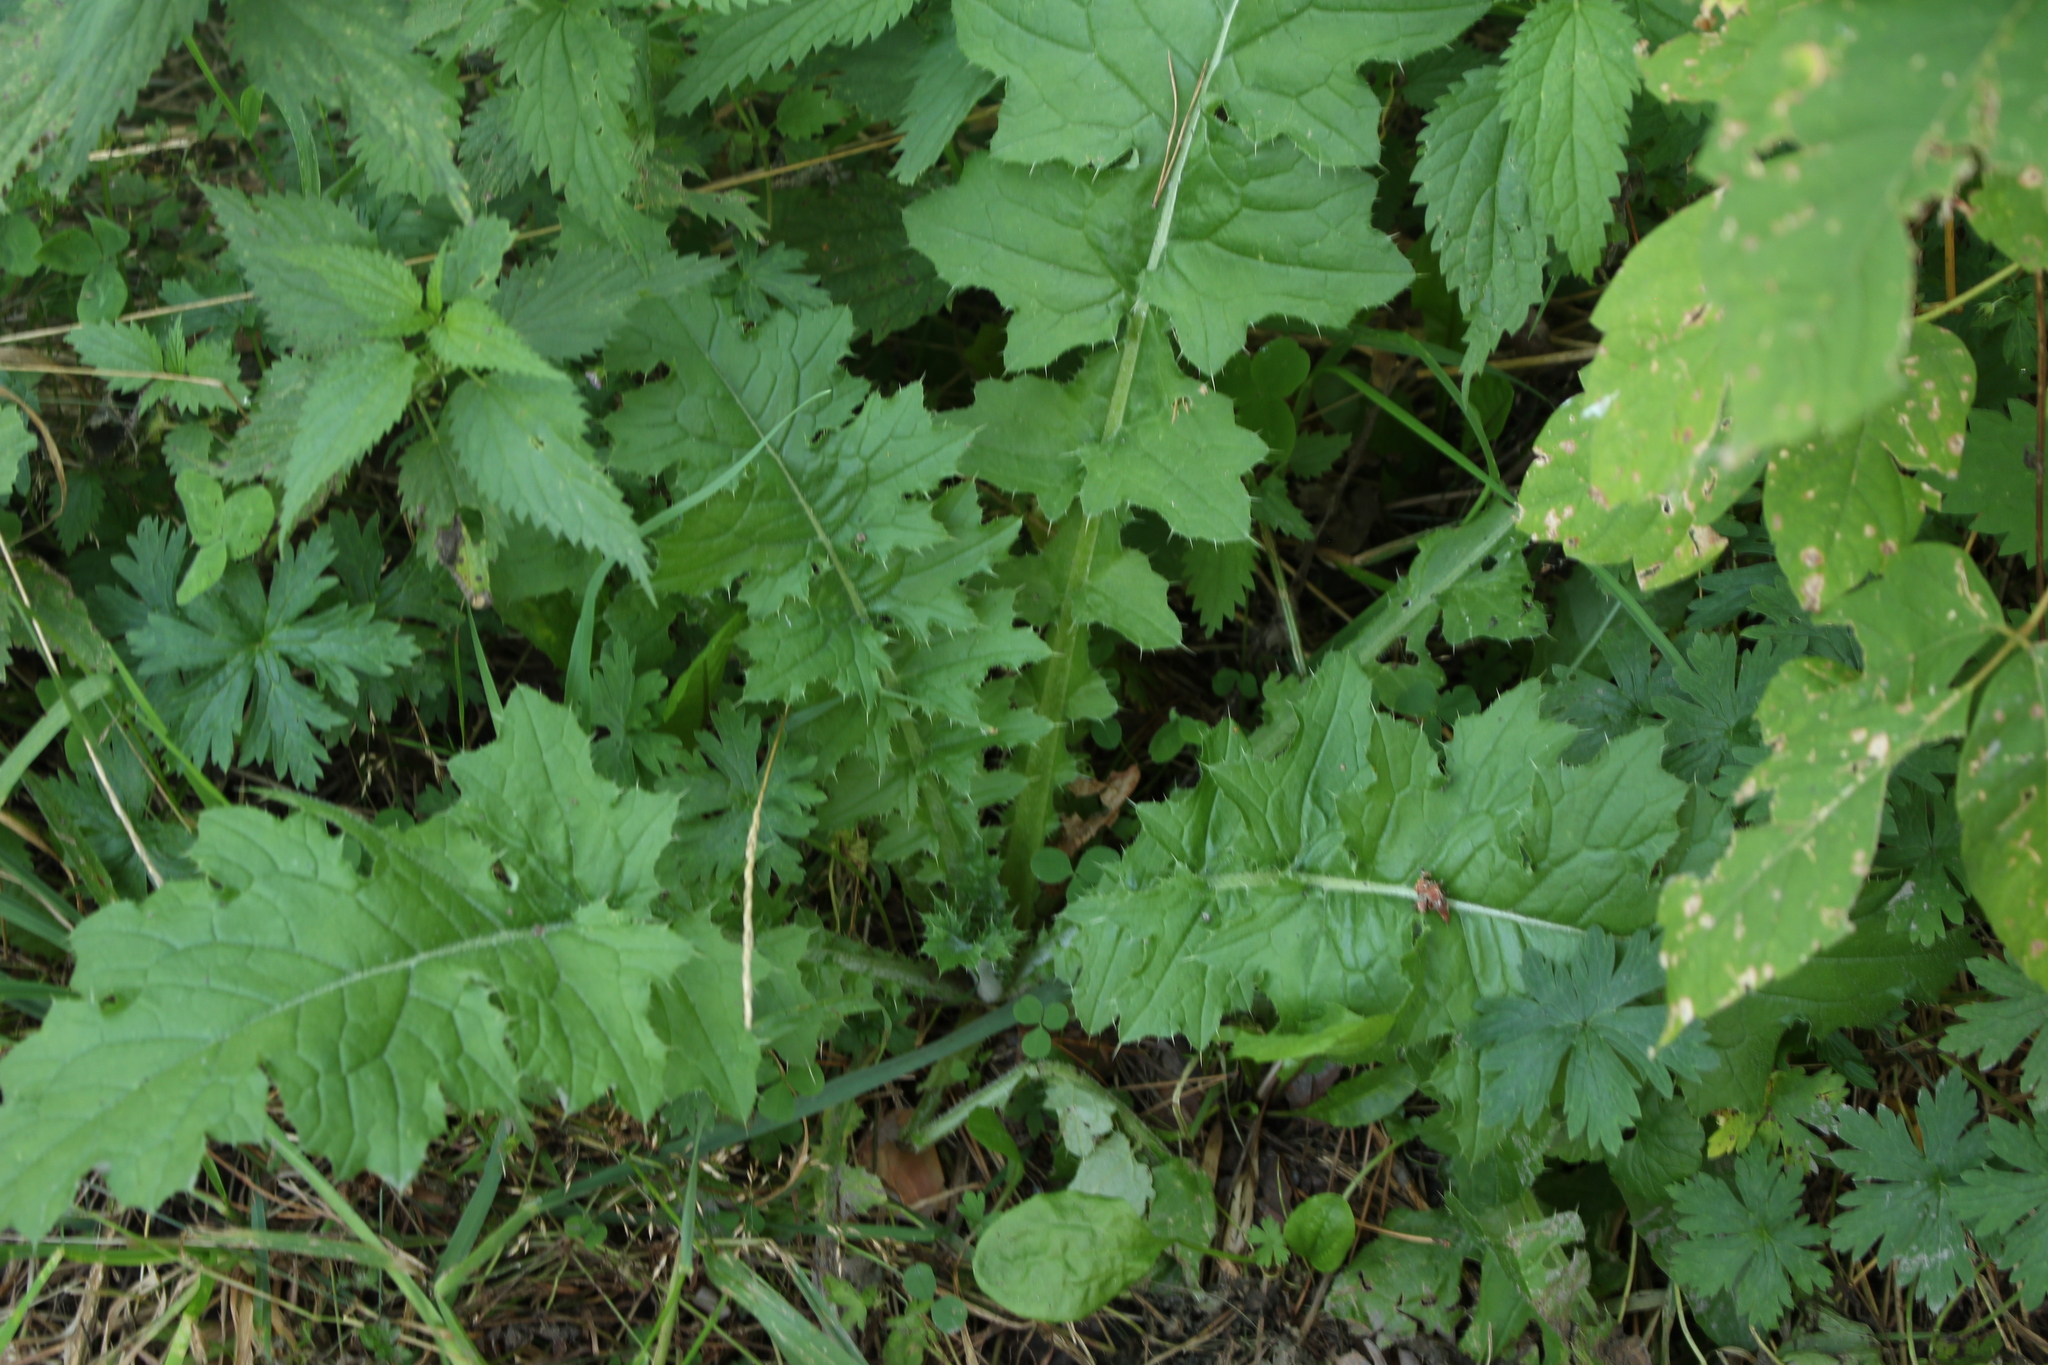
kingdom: Plantae
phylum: Tracheophyta
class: Magnoliopsida
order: Asterales
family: Asteraceae
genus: Carduus
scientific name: Carduus crispus
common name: Welted thistle
